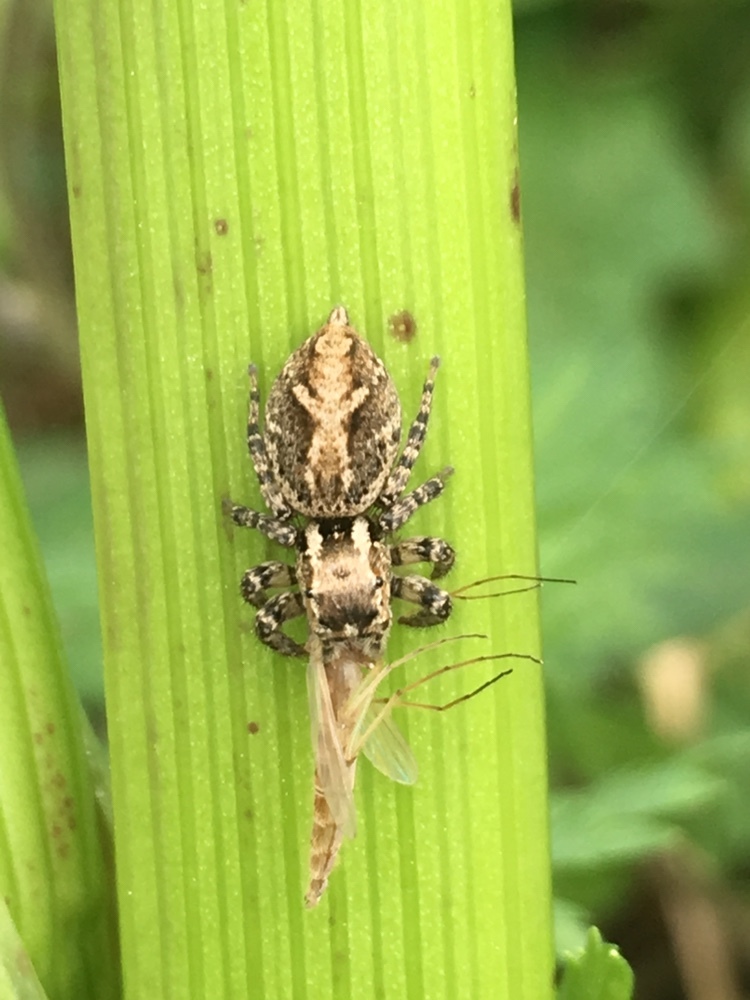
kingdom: Animalia
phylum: Arthropoda
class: Arachnida
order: Araneae
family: Salticidae
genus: Aphirape
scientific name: Aphirape
